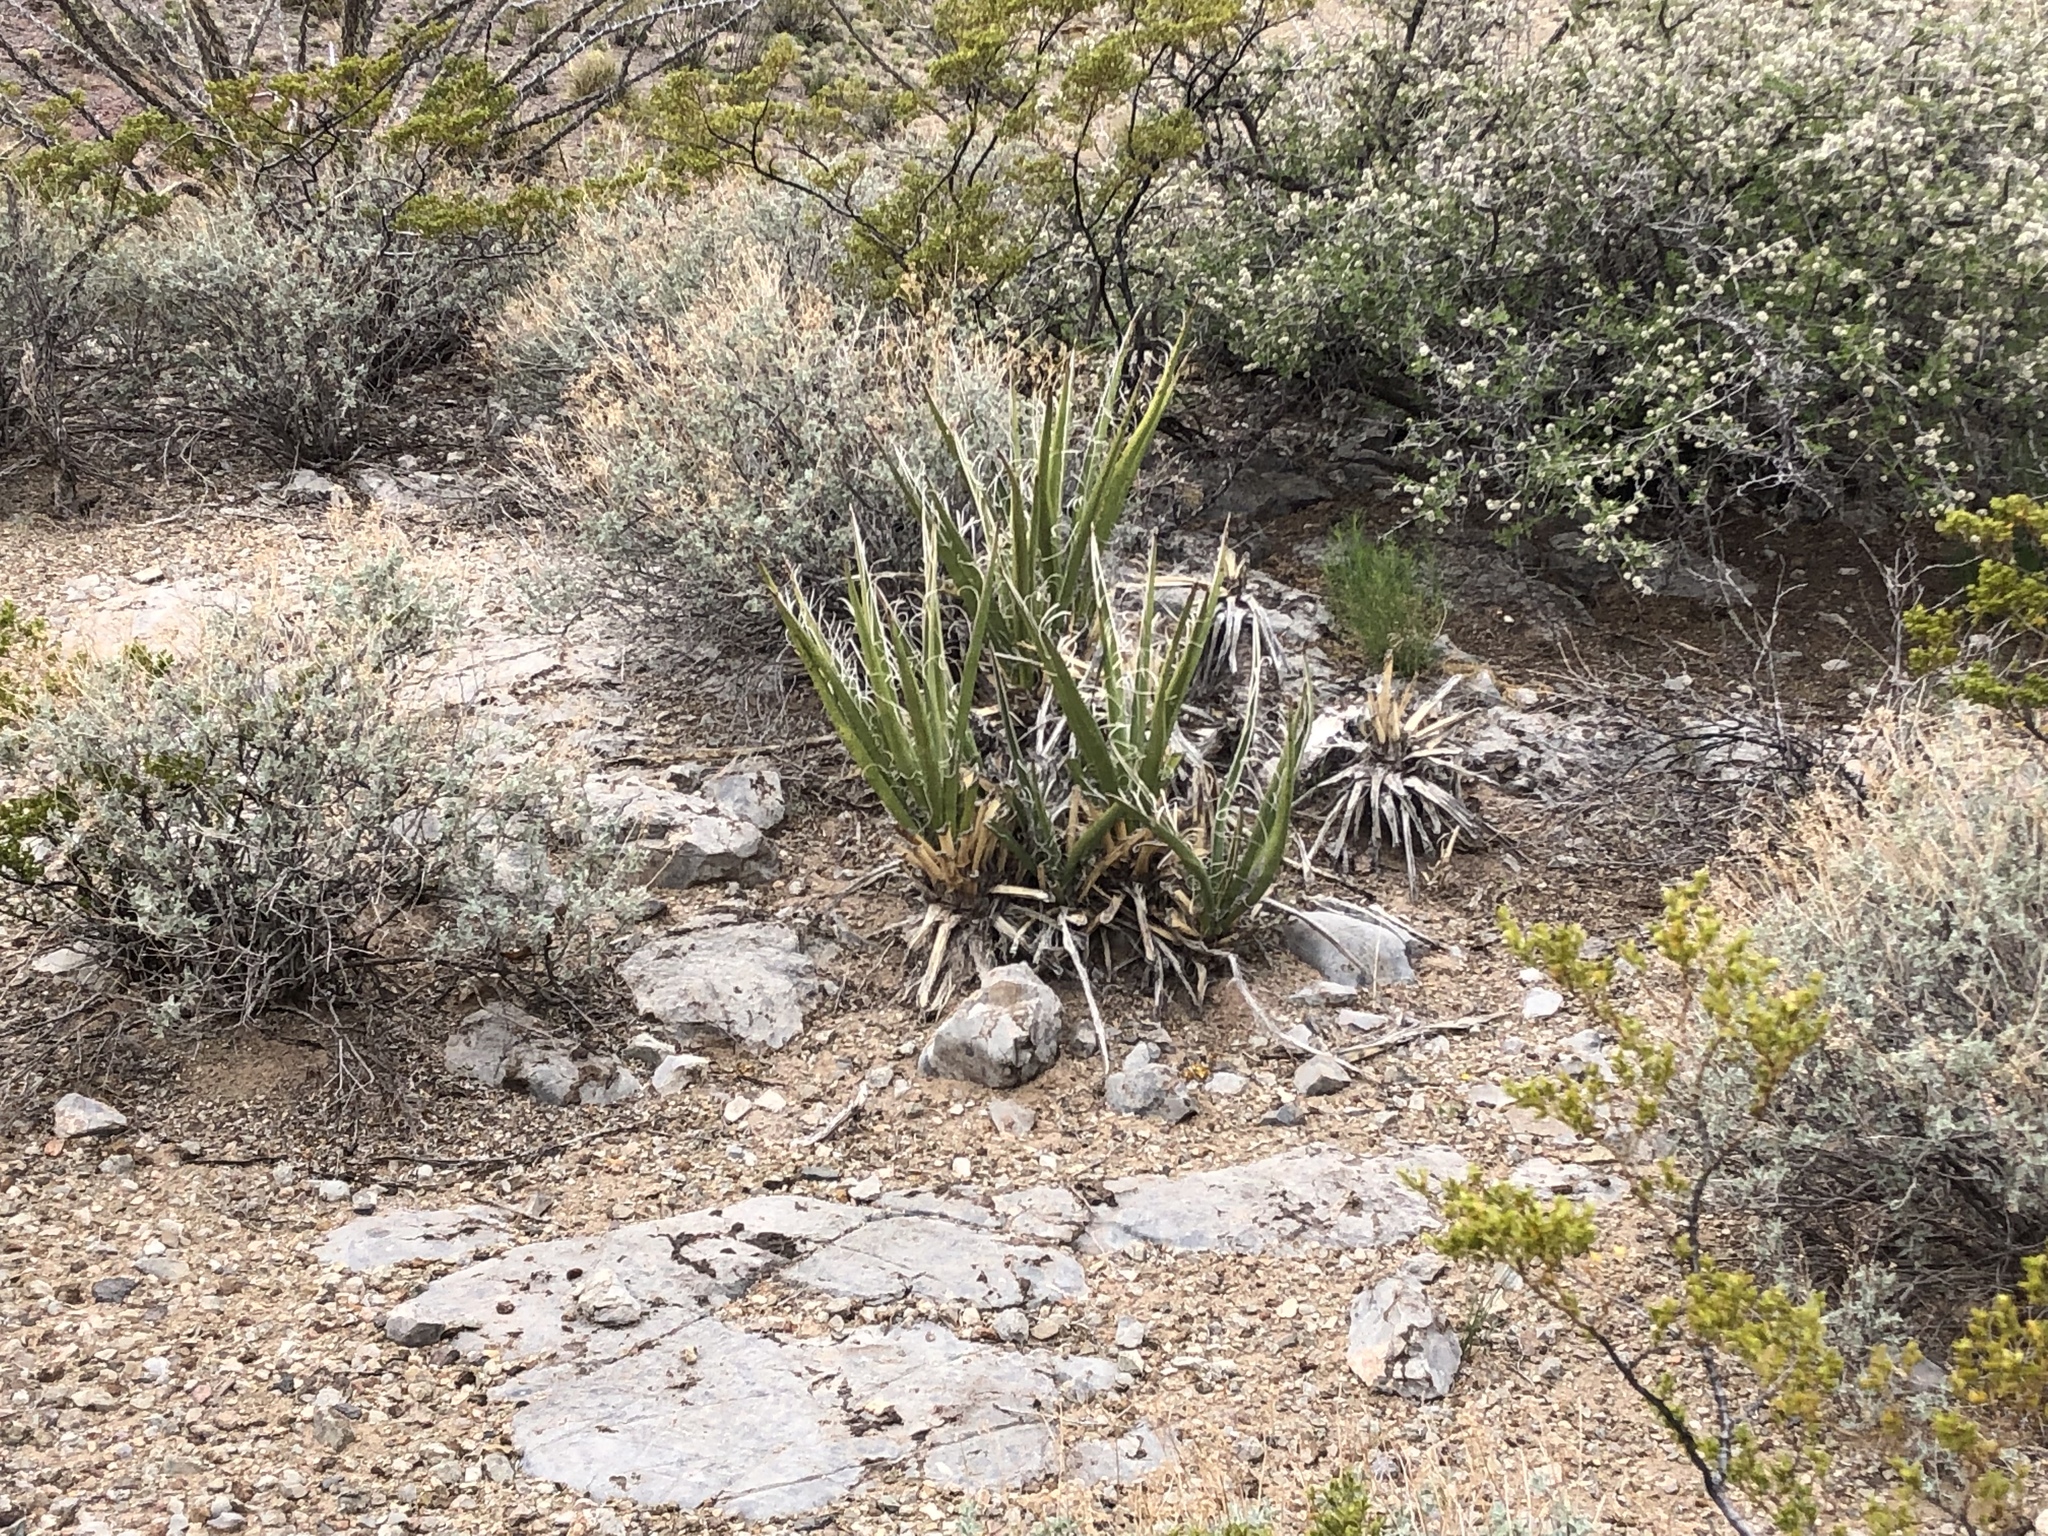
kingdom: Plantae
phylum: Tracheophyta
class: Liliopsida
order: Asparagales
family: Asparagaceae
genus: Yucca
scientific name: Yucca baccata
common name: Banana yucca
